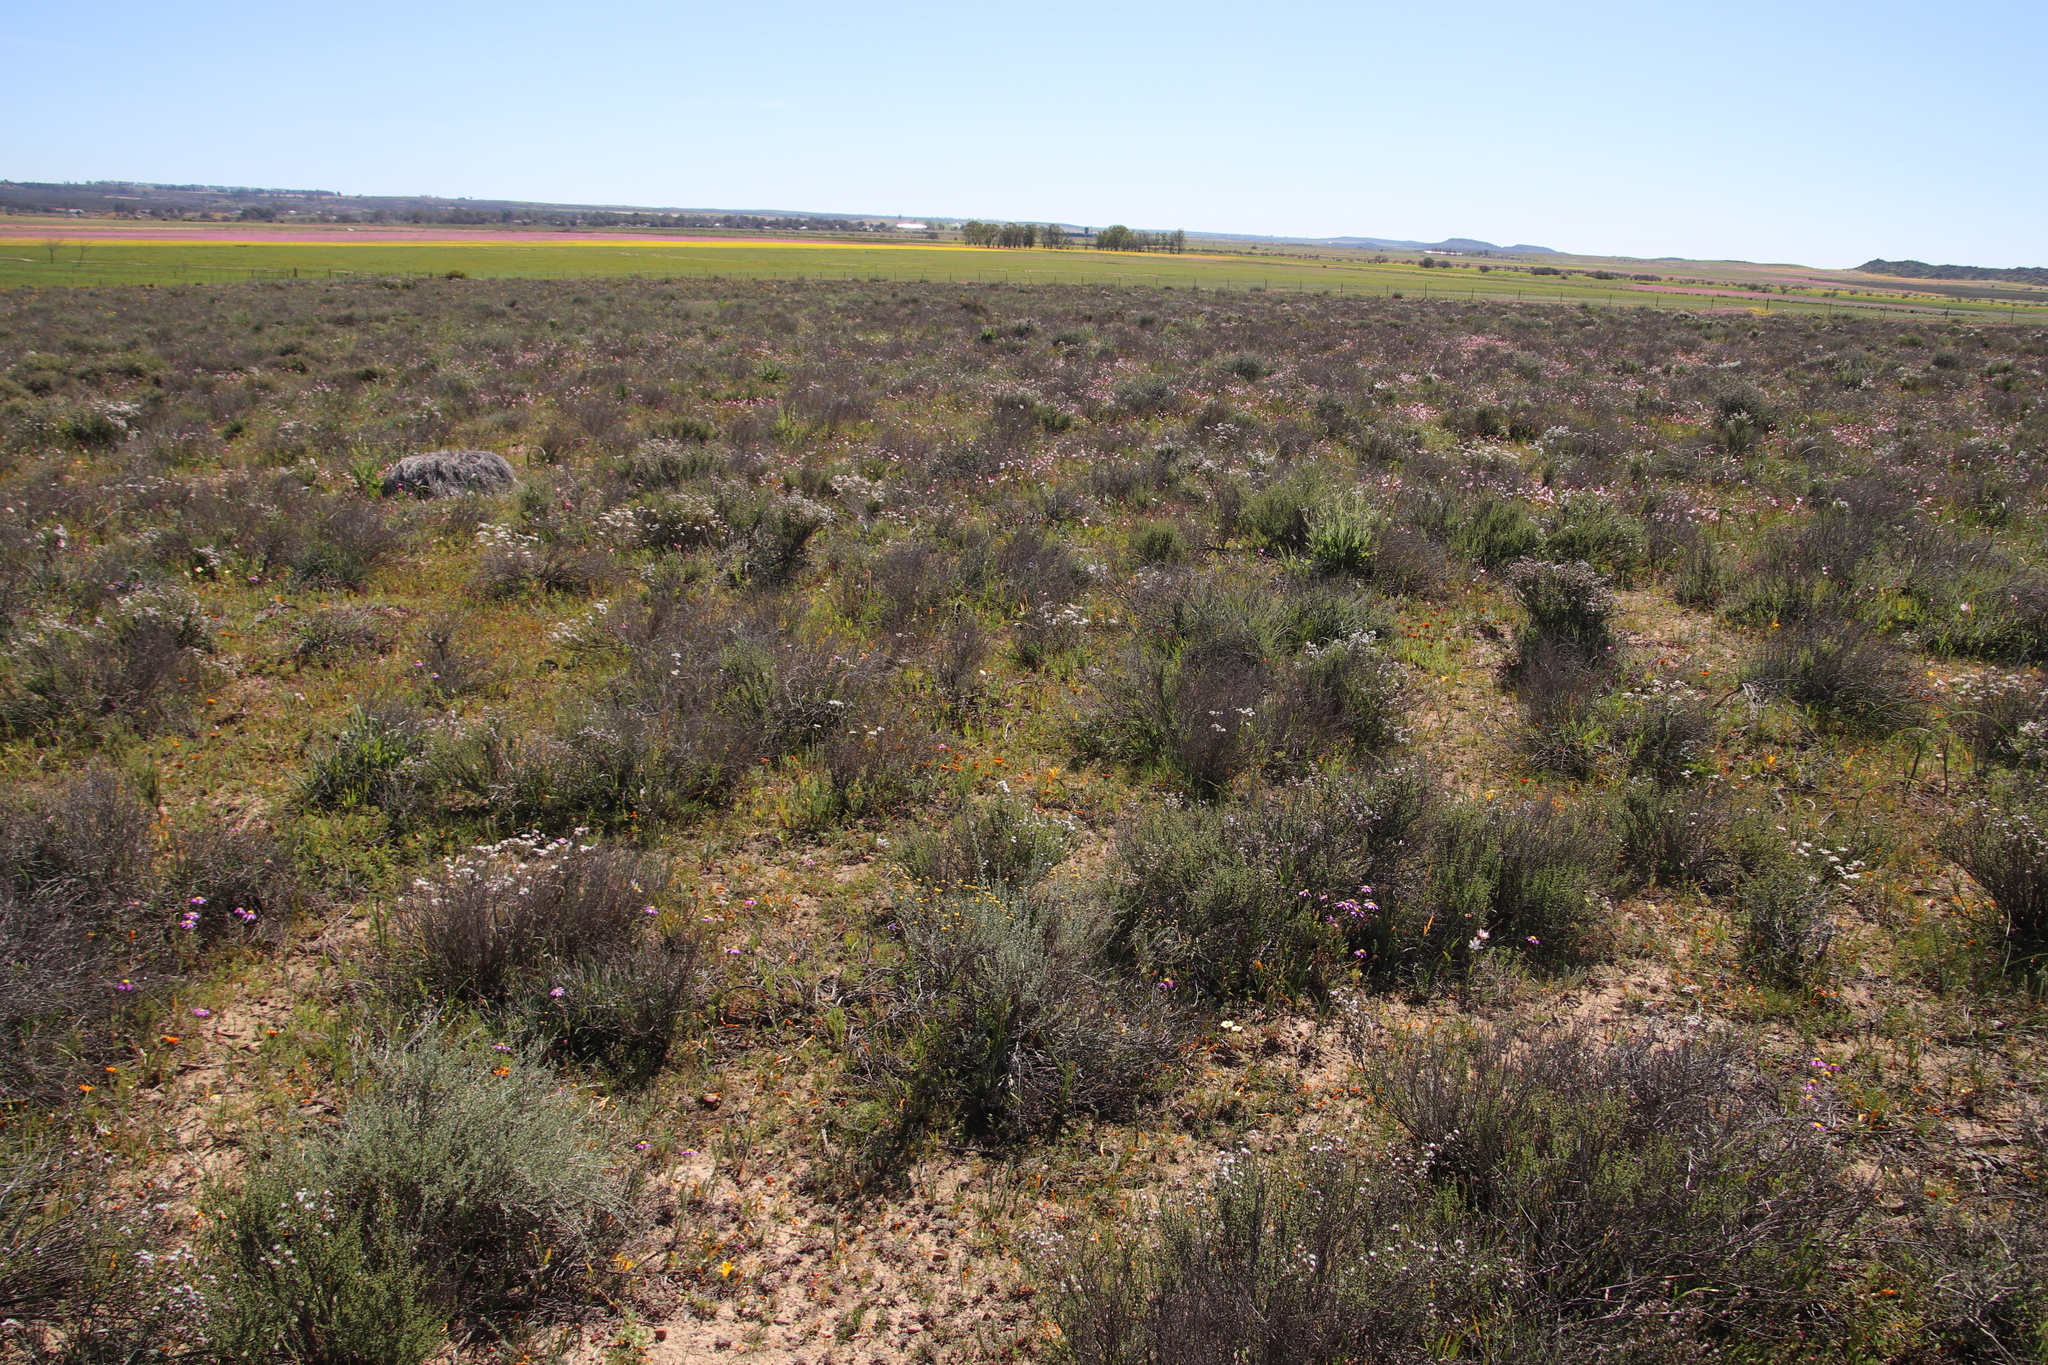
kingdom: Plantae
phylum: Tracheophyta
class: Magnoliopsida
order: Asterales
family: Asteraceae
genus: Gorteria
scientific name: Gorteria diffusa
